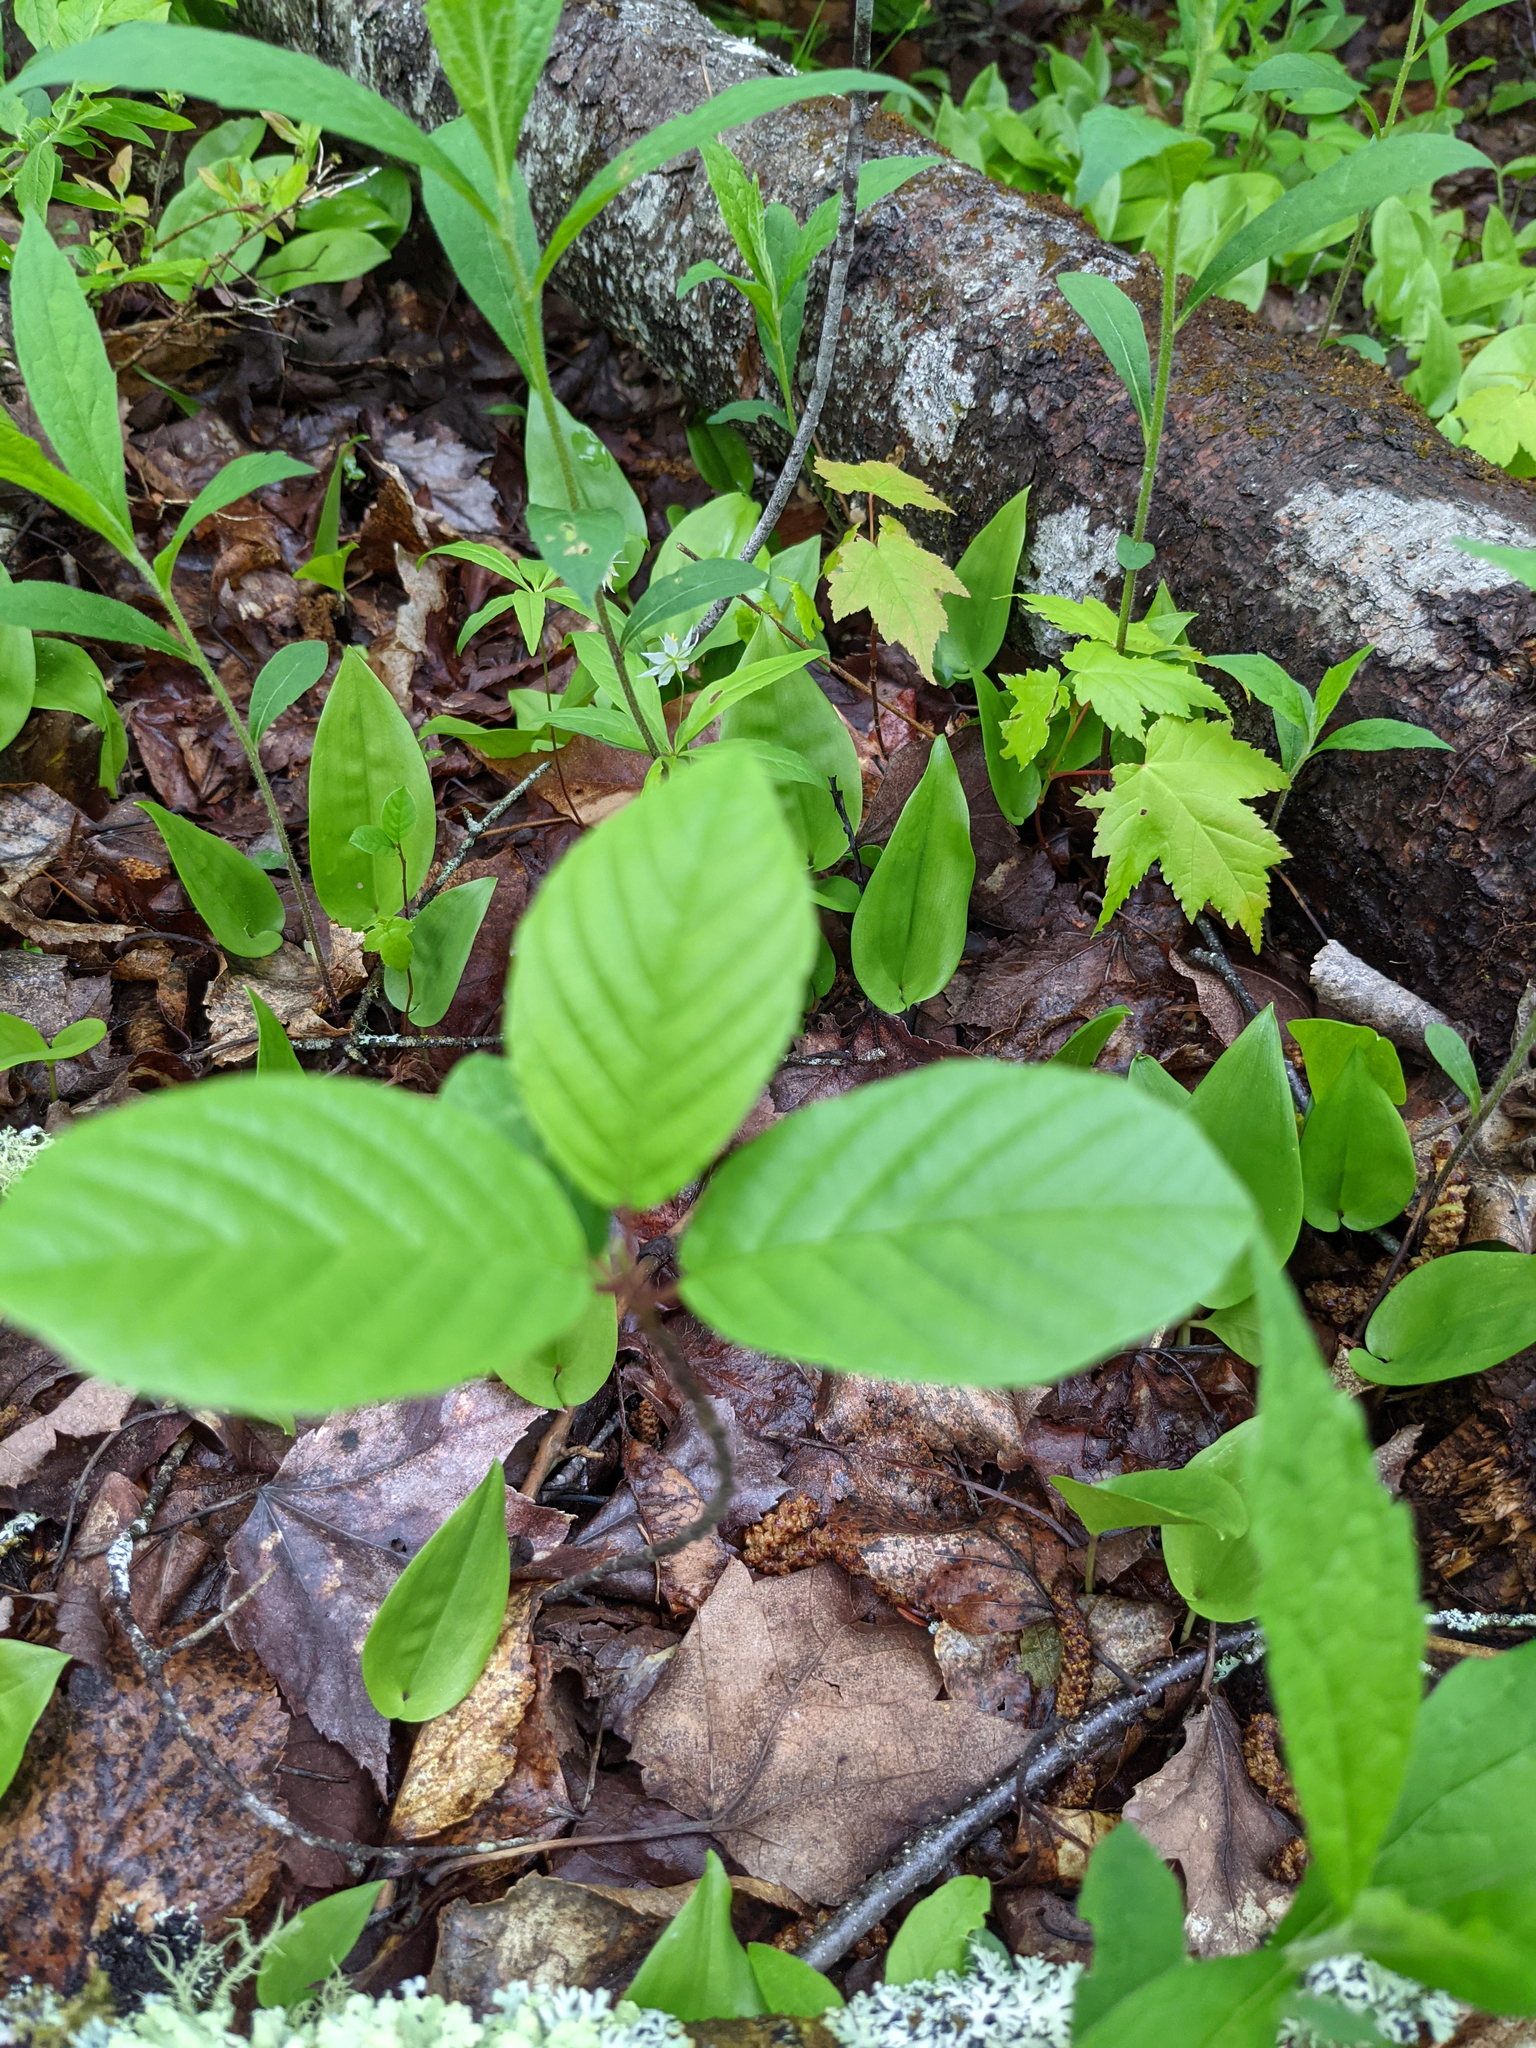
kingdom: Plantae
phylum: Tracheophyta
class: Magnoliopsida
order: Rosales
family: Rhamnaceae
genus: Frangula
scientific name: Frangula alnus
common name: Alder buckthorn
